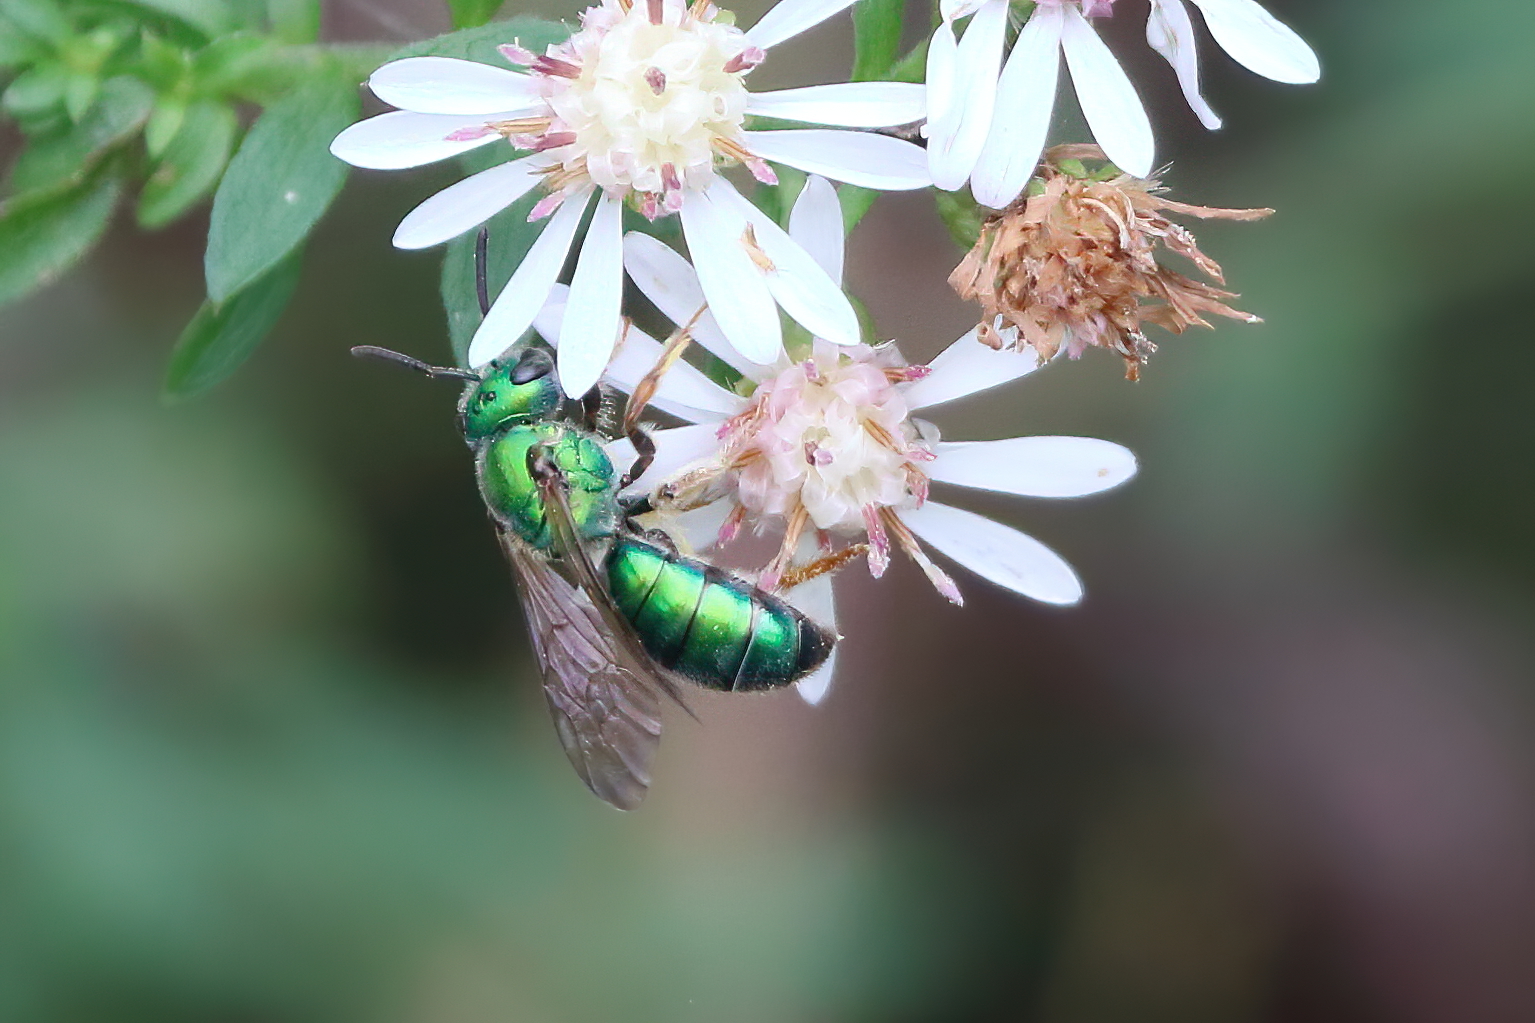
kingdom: Animalia
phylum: Arthropoda
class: Insecta
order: Hymenoptera
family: Halictidae
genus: Augochlora
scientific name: Augochlora pura
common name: Pure green sweat bee
